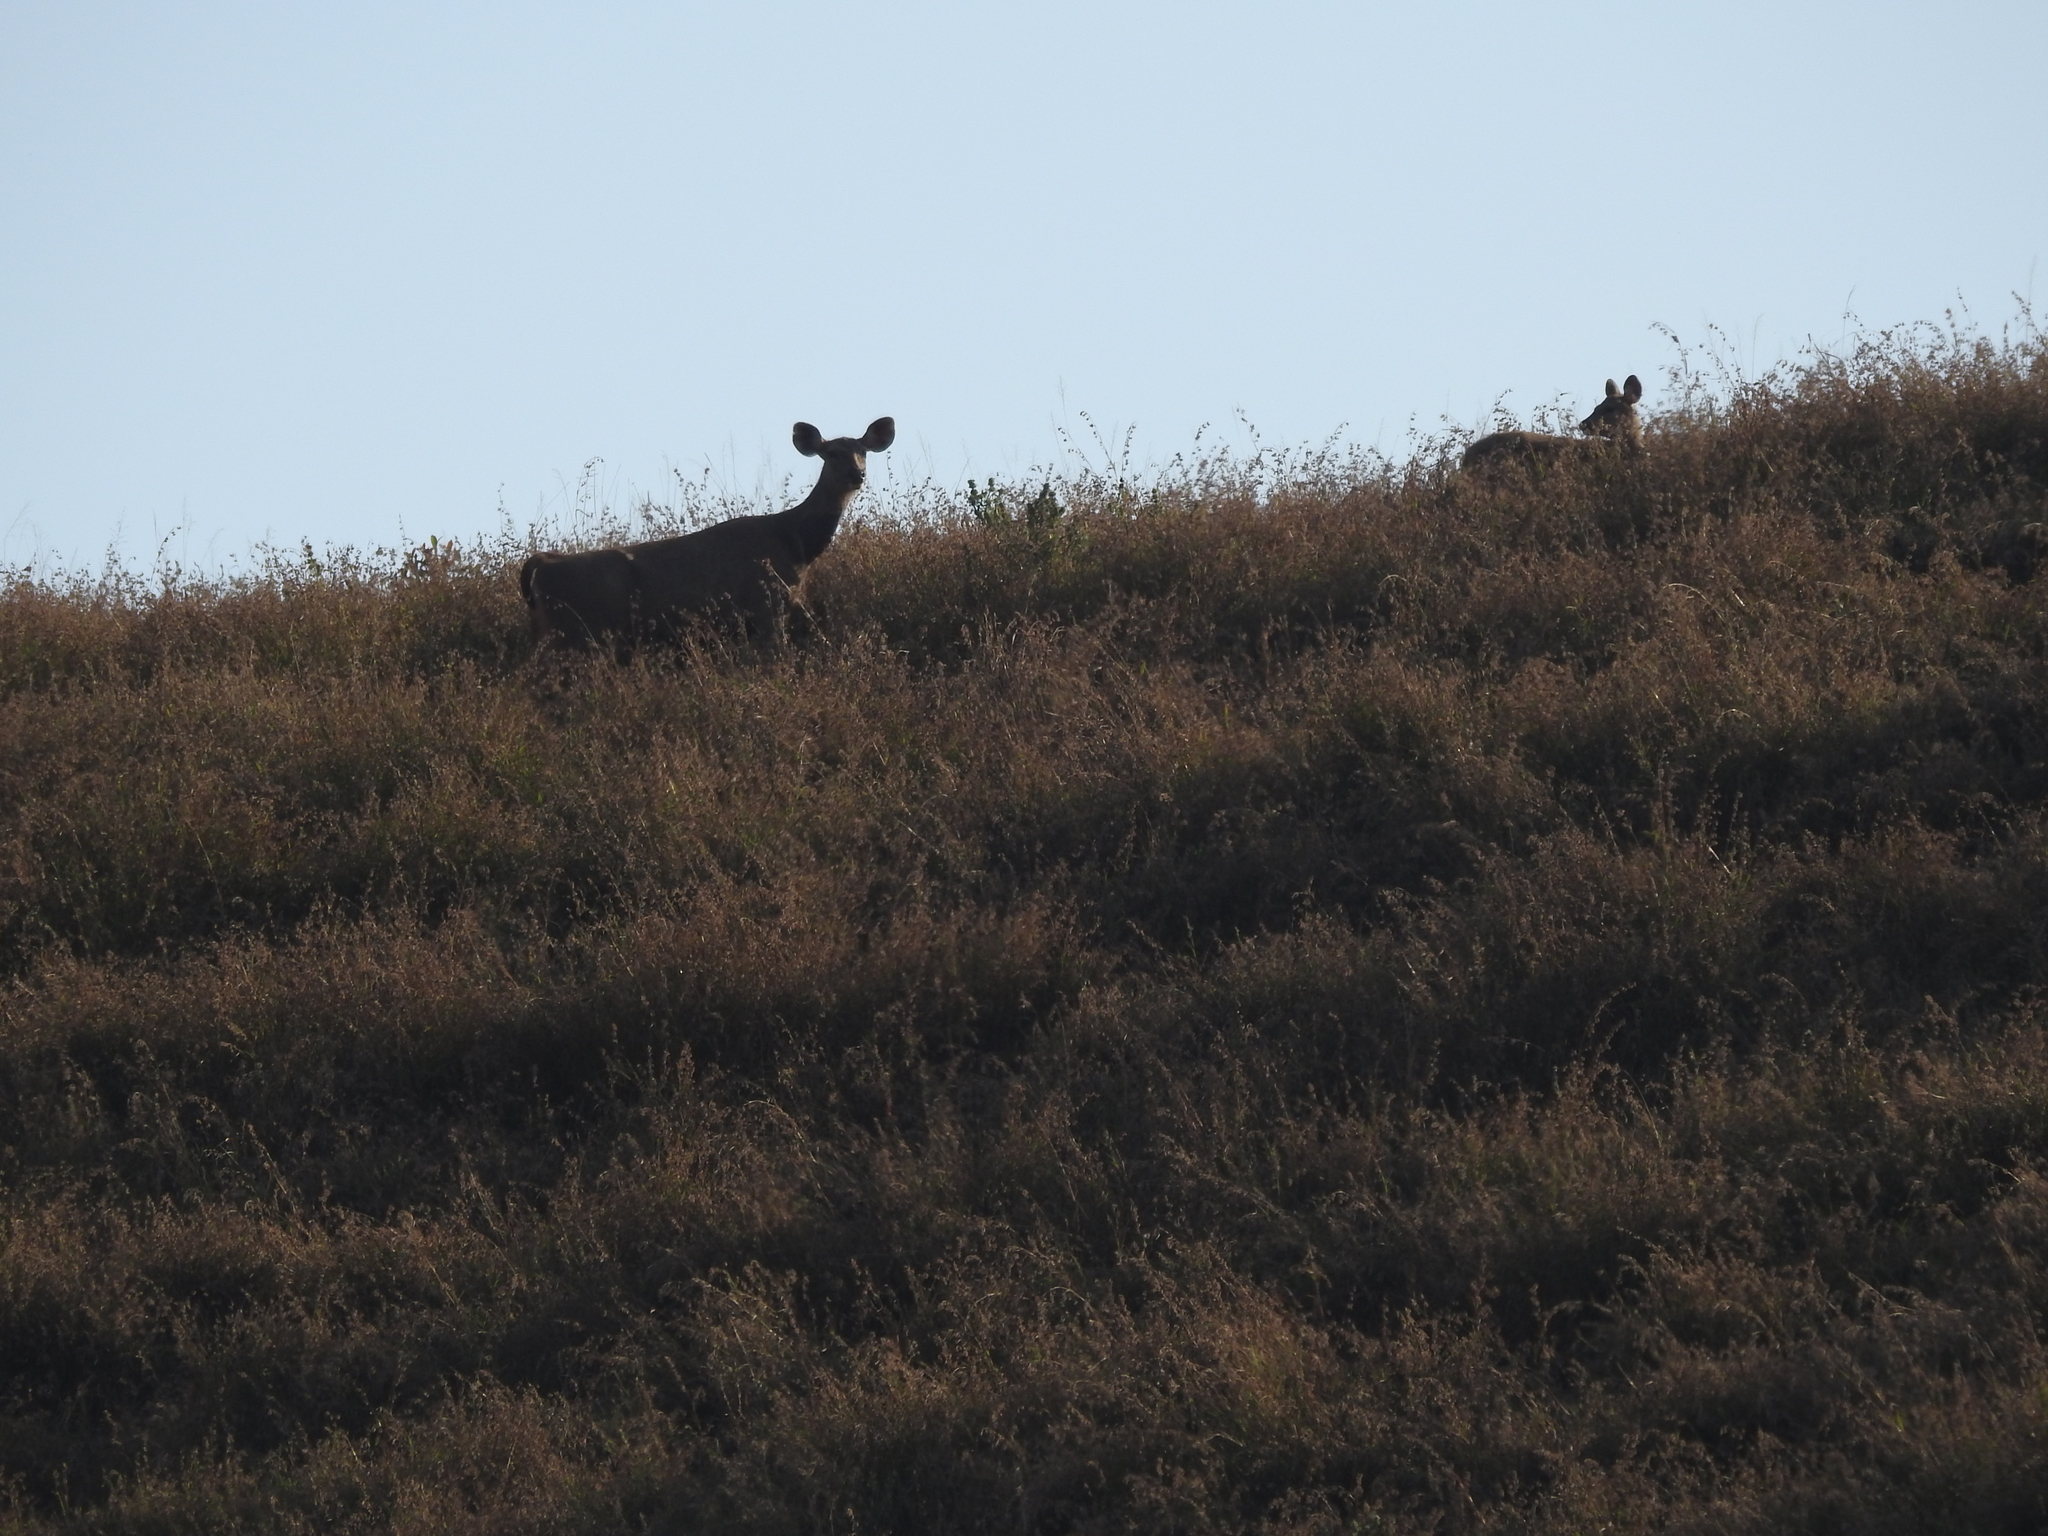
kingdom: Animalia
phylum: Chordata
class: Mammalia
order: Artiodactyla
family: Cervidae
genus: Rusa
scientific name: Rusa unicolor
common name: Sambar
